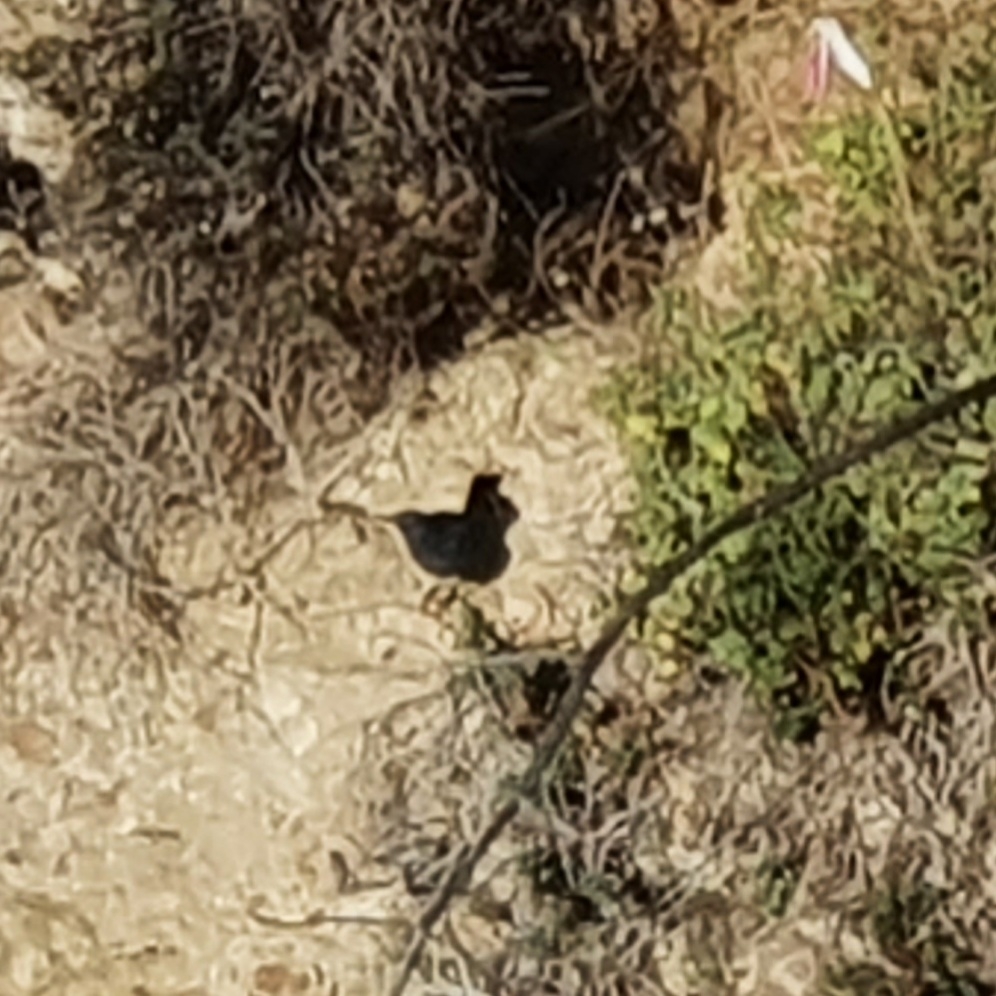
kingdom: Animalia
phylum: Chordata
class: Aves
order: Passeriformes
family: Muscicapidae
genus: Monticola
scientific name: Monticola solitarius
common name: Blue rock thrush
